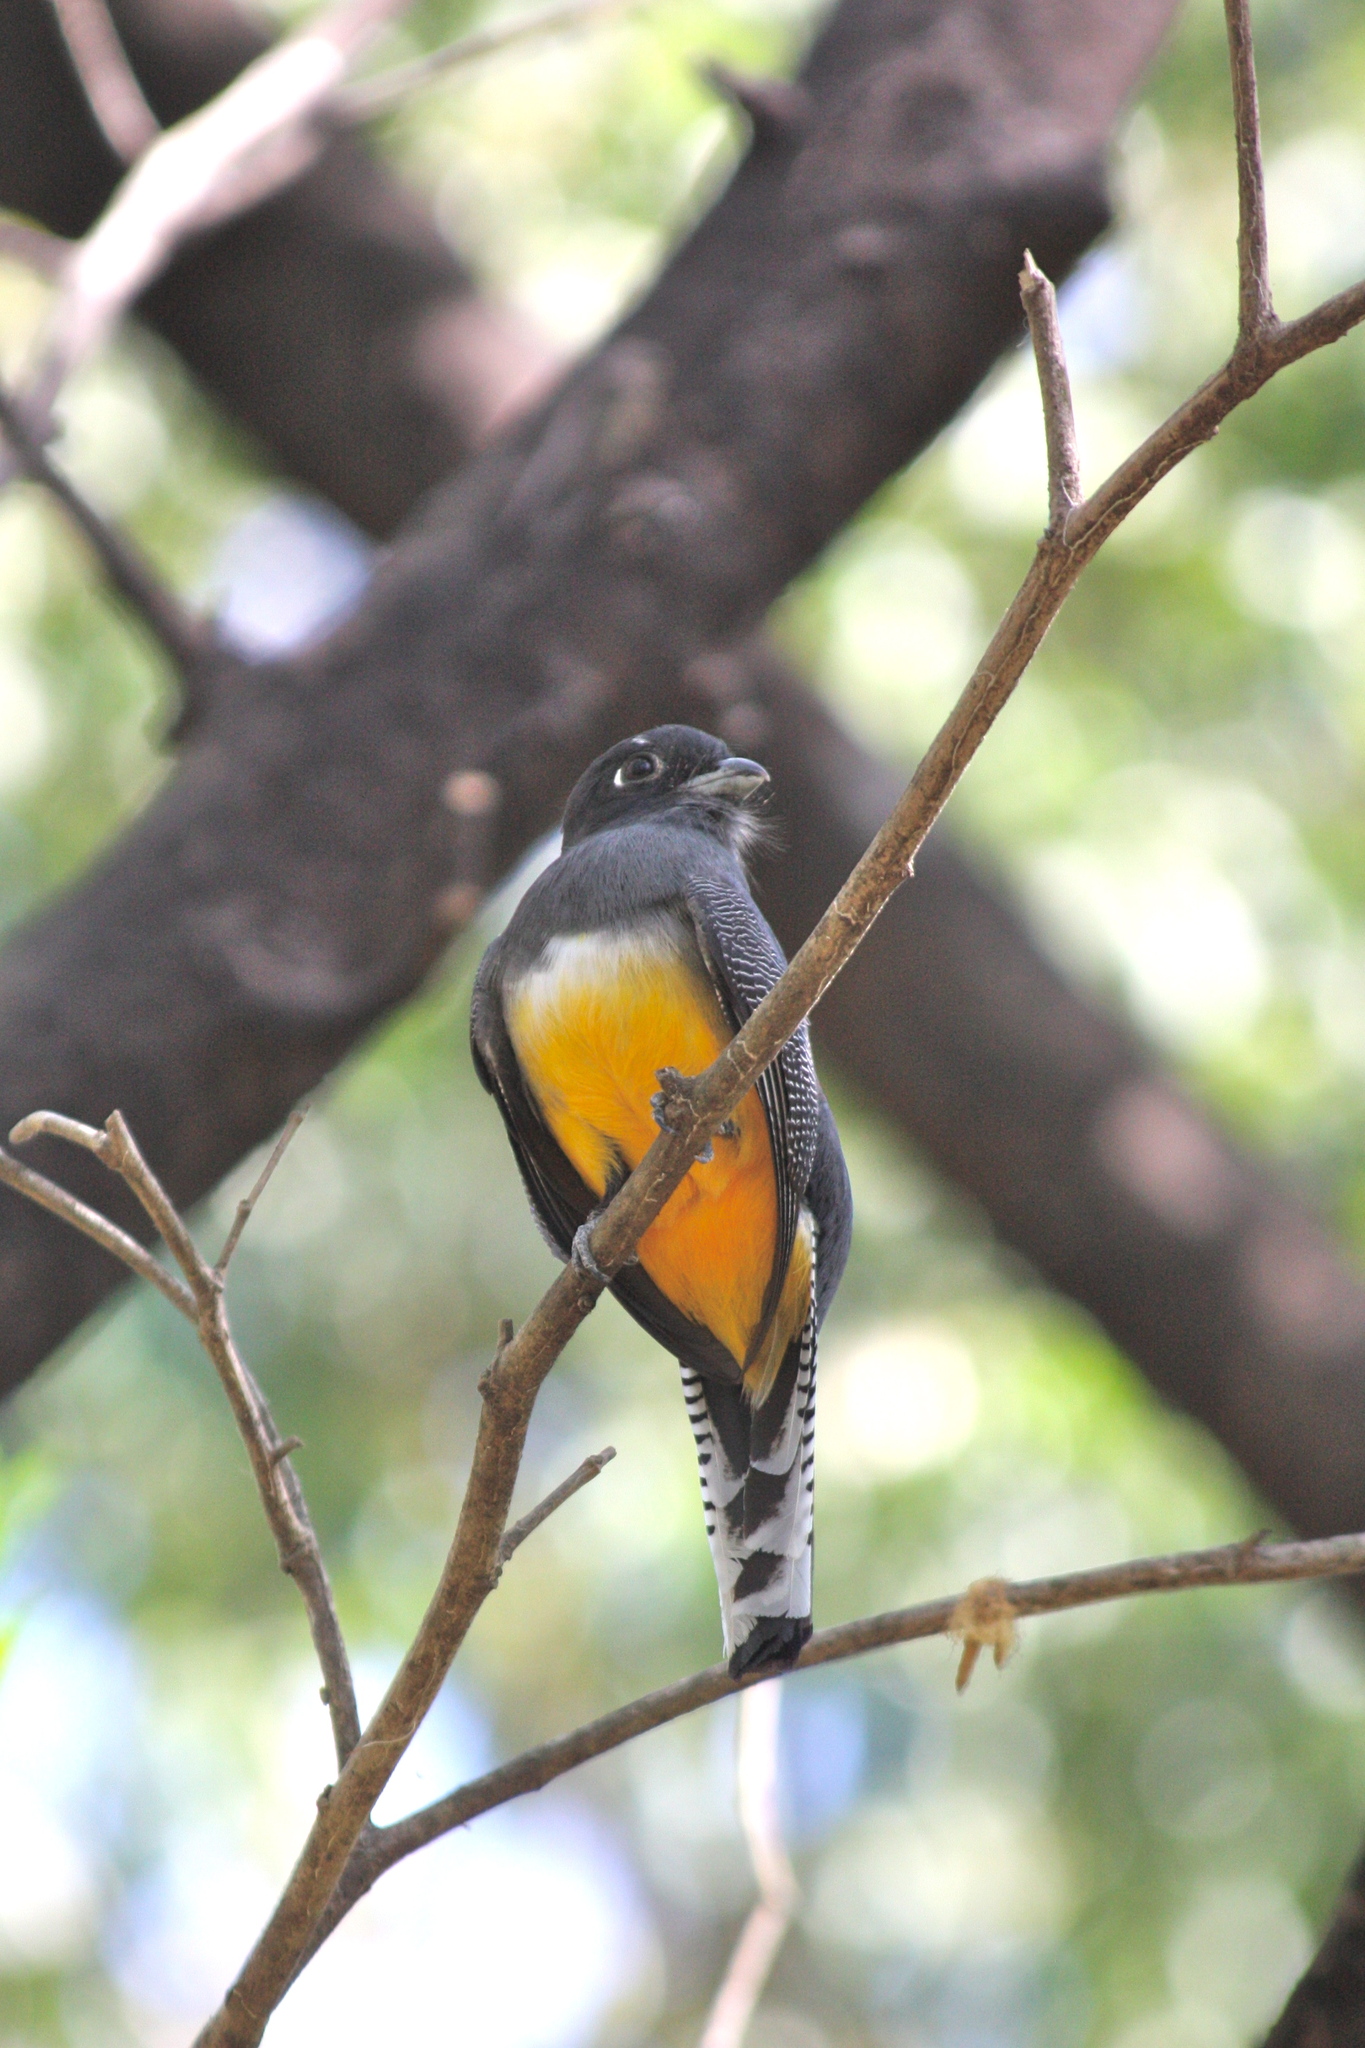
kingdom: Animalia
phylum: Chordata
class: Aves
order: Trogoniformes
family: Trogonidae
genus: Trogon
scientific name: Trogon caligatus
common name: Gartered trogon
